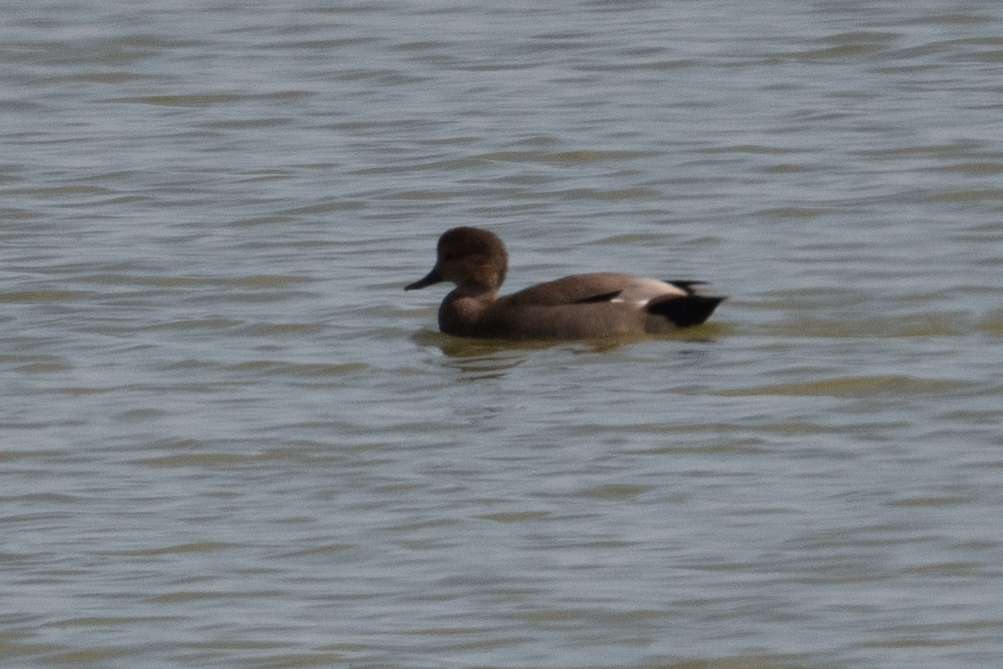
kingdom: Animalia
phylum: Chordata
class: Aves
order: Anseriformes
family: Anatidae
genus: Mareca
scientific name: Mareca strepera
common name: Gadwall
